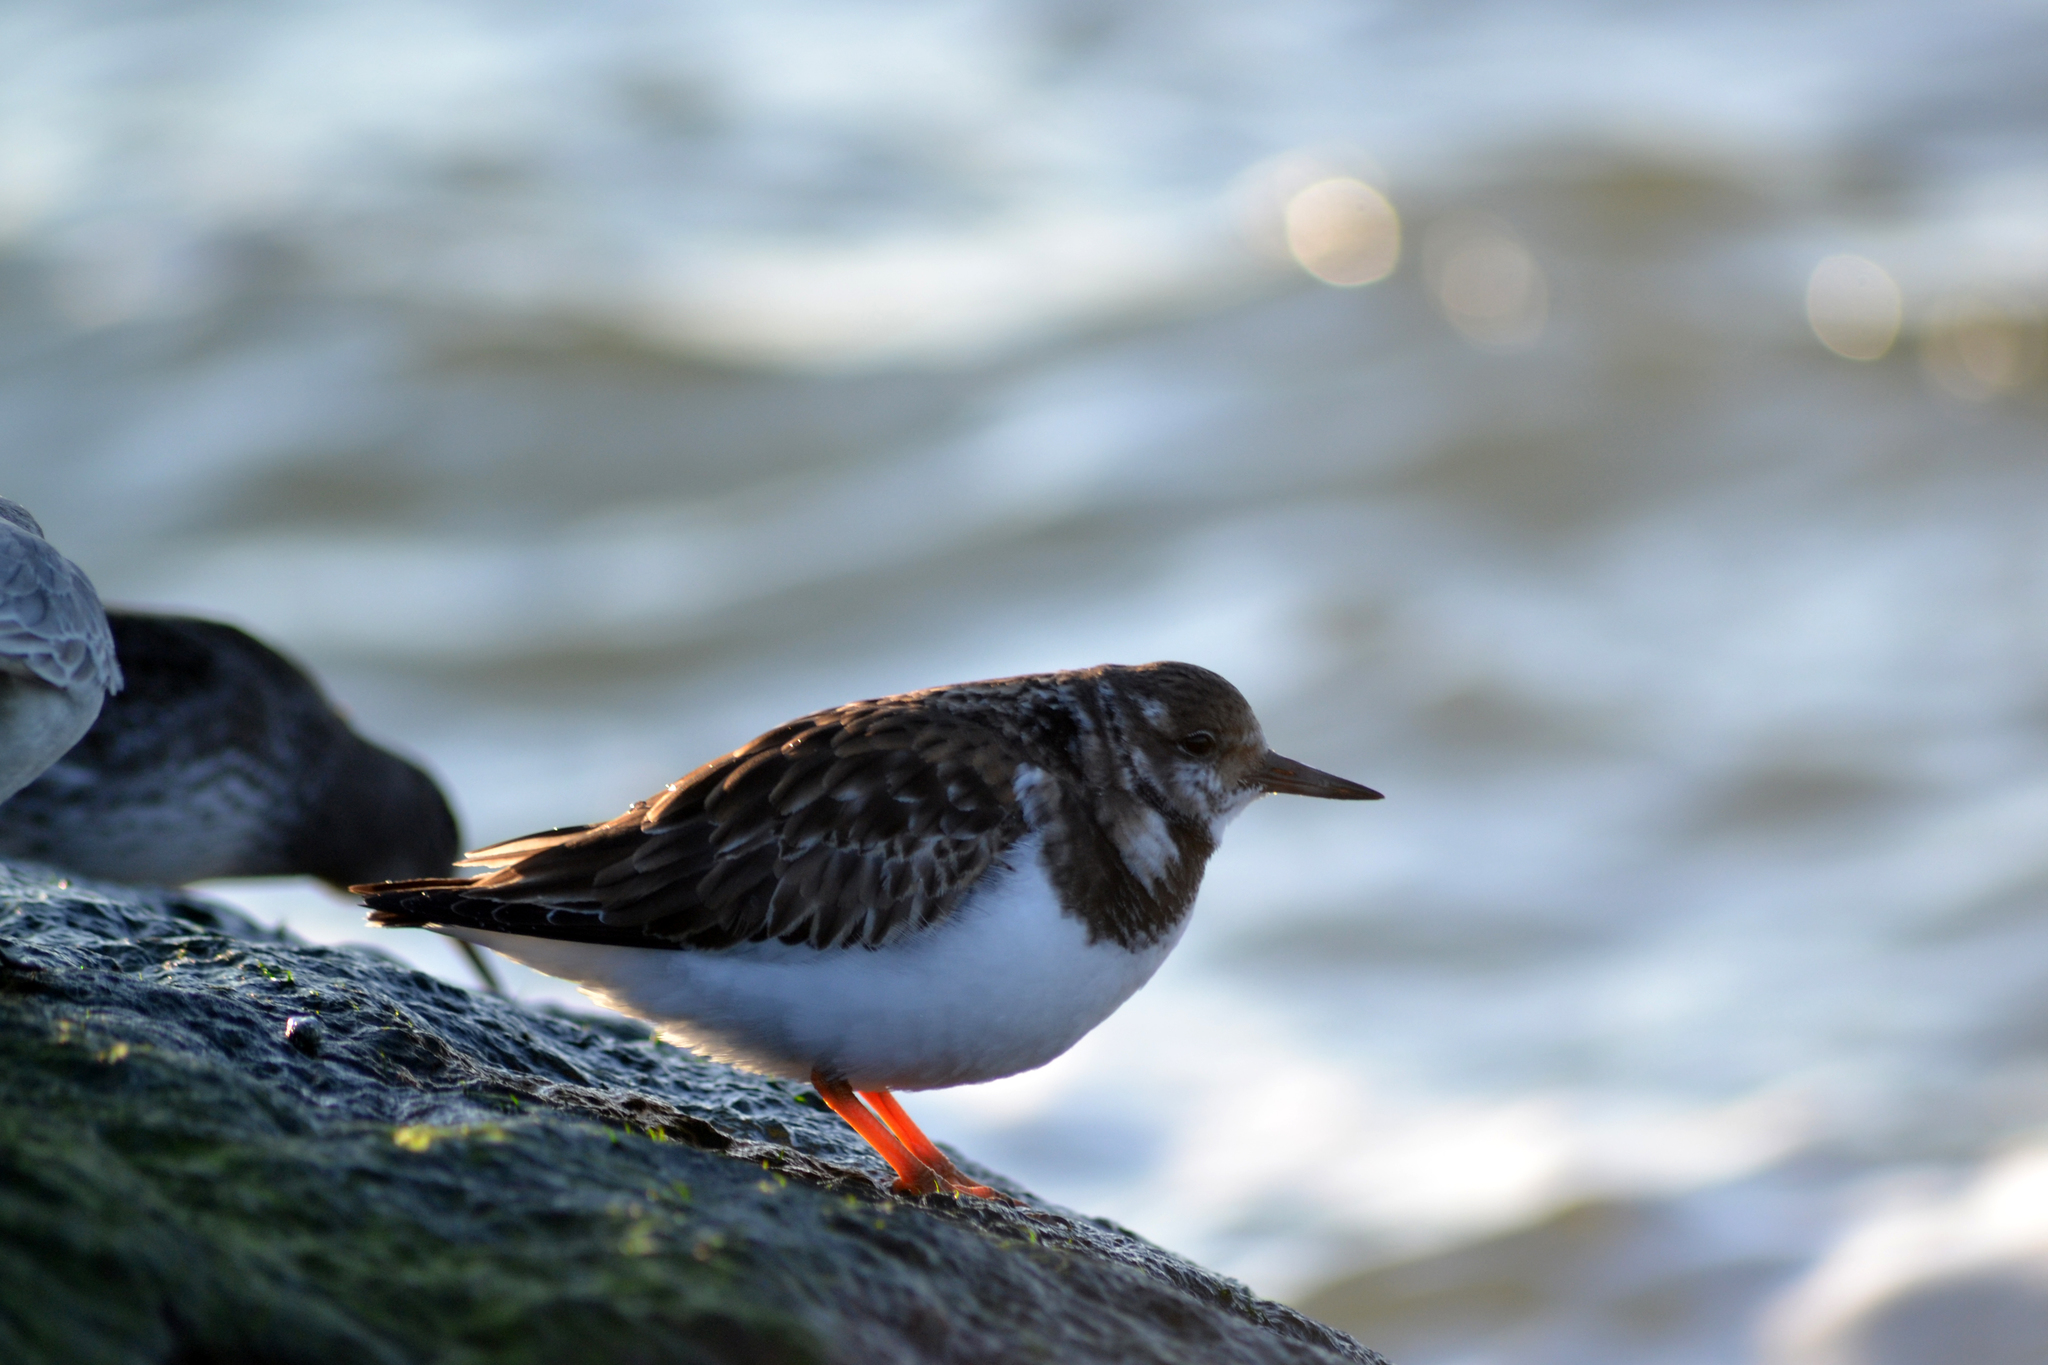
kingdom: Animalia
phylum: Chordata
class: Aves
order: Charadriiformes
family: Scolopacidae
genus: Arenaria
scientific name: Arenaria interpres
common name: Ruddy turnstone
